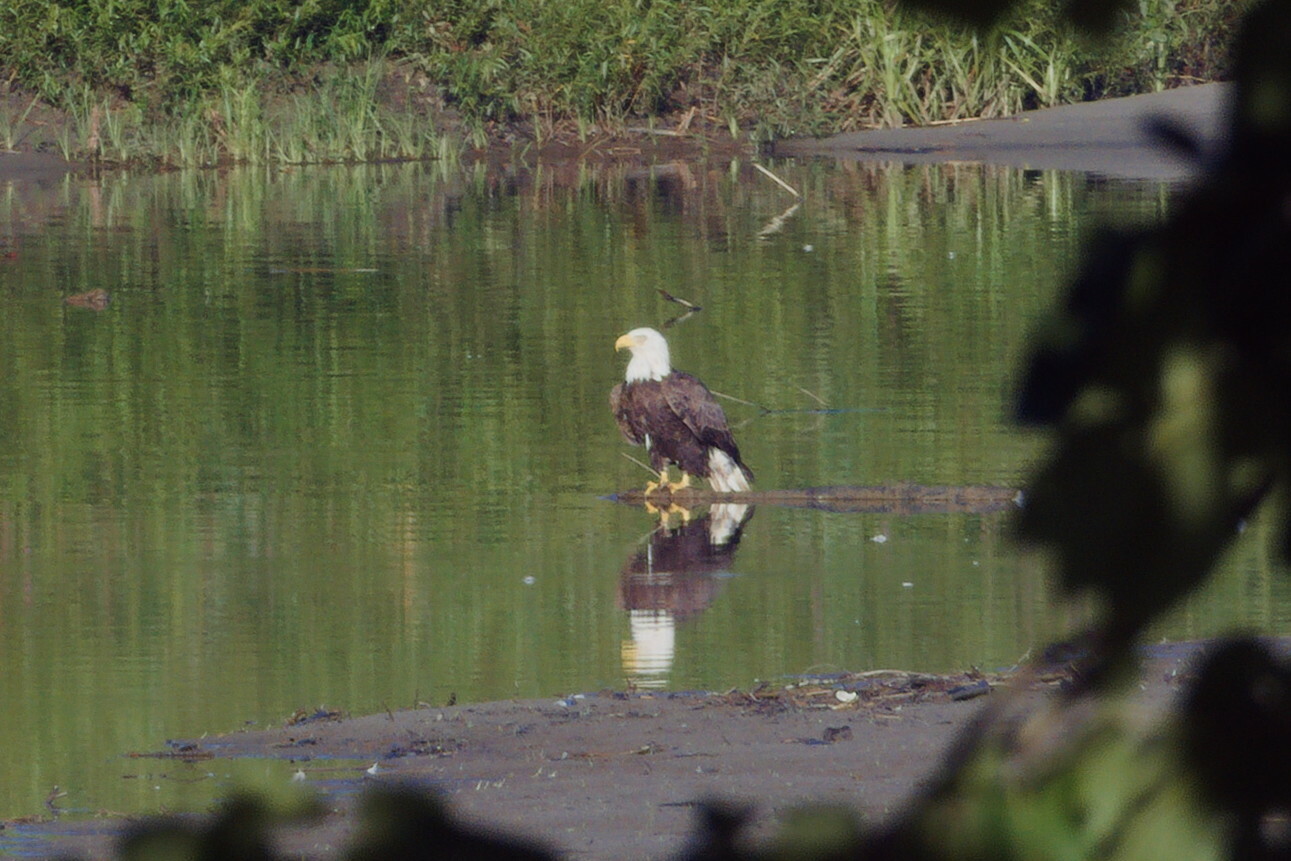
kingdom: Animalia
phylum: Chordata
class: Aves
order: Accipitriformes
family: Accipitridae
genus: Haliaeetus
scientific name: Haliaeetus leucocephalus
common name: Bald eagle
